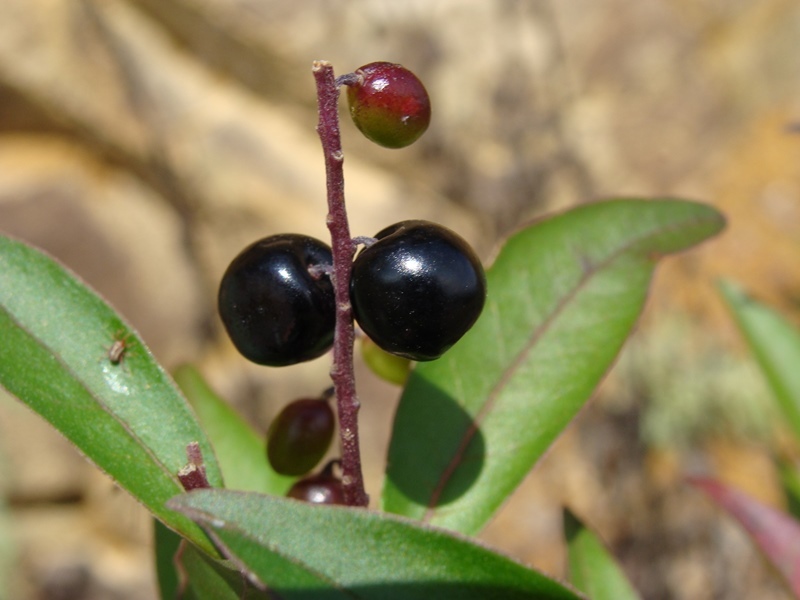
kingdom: Plantae
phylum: Tracheophyta
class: Magnoliopsida
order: Fabales
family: Polygalaceae
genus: Monnina
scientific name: Monnina xalapensis
